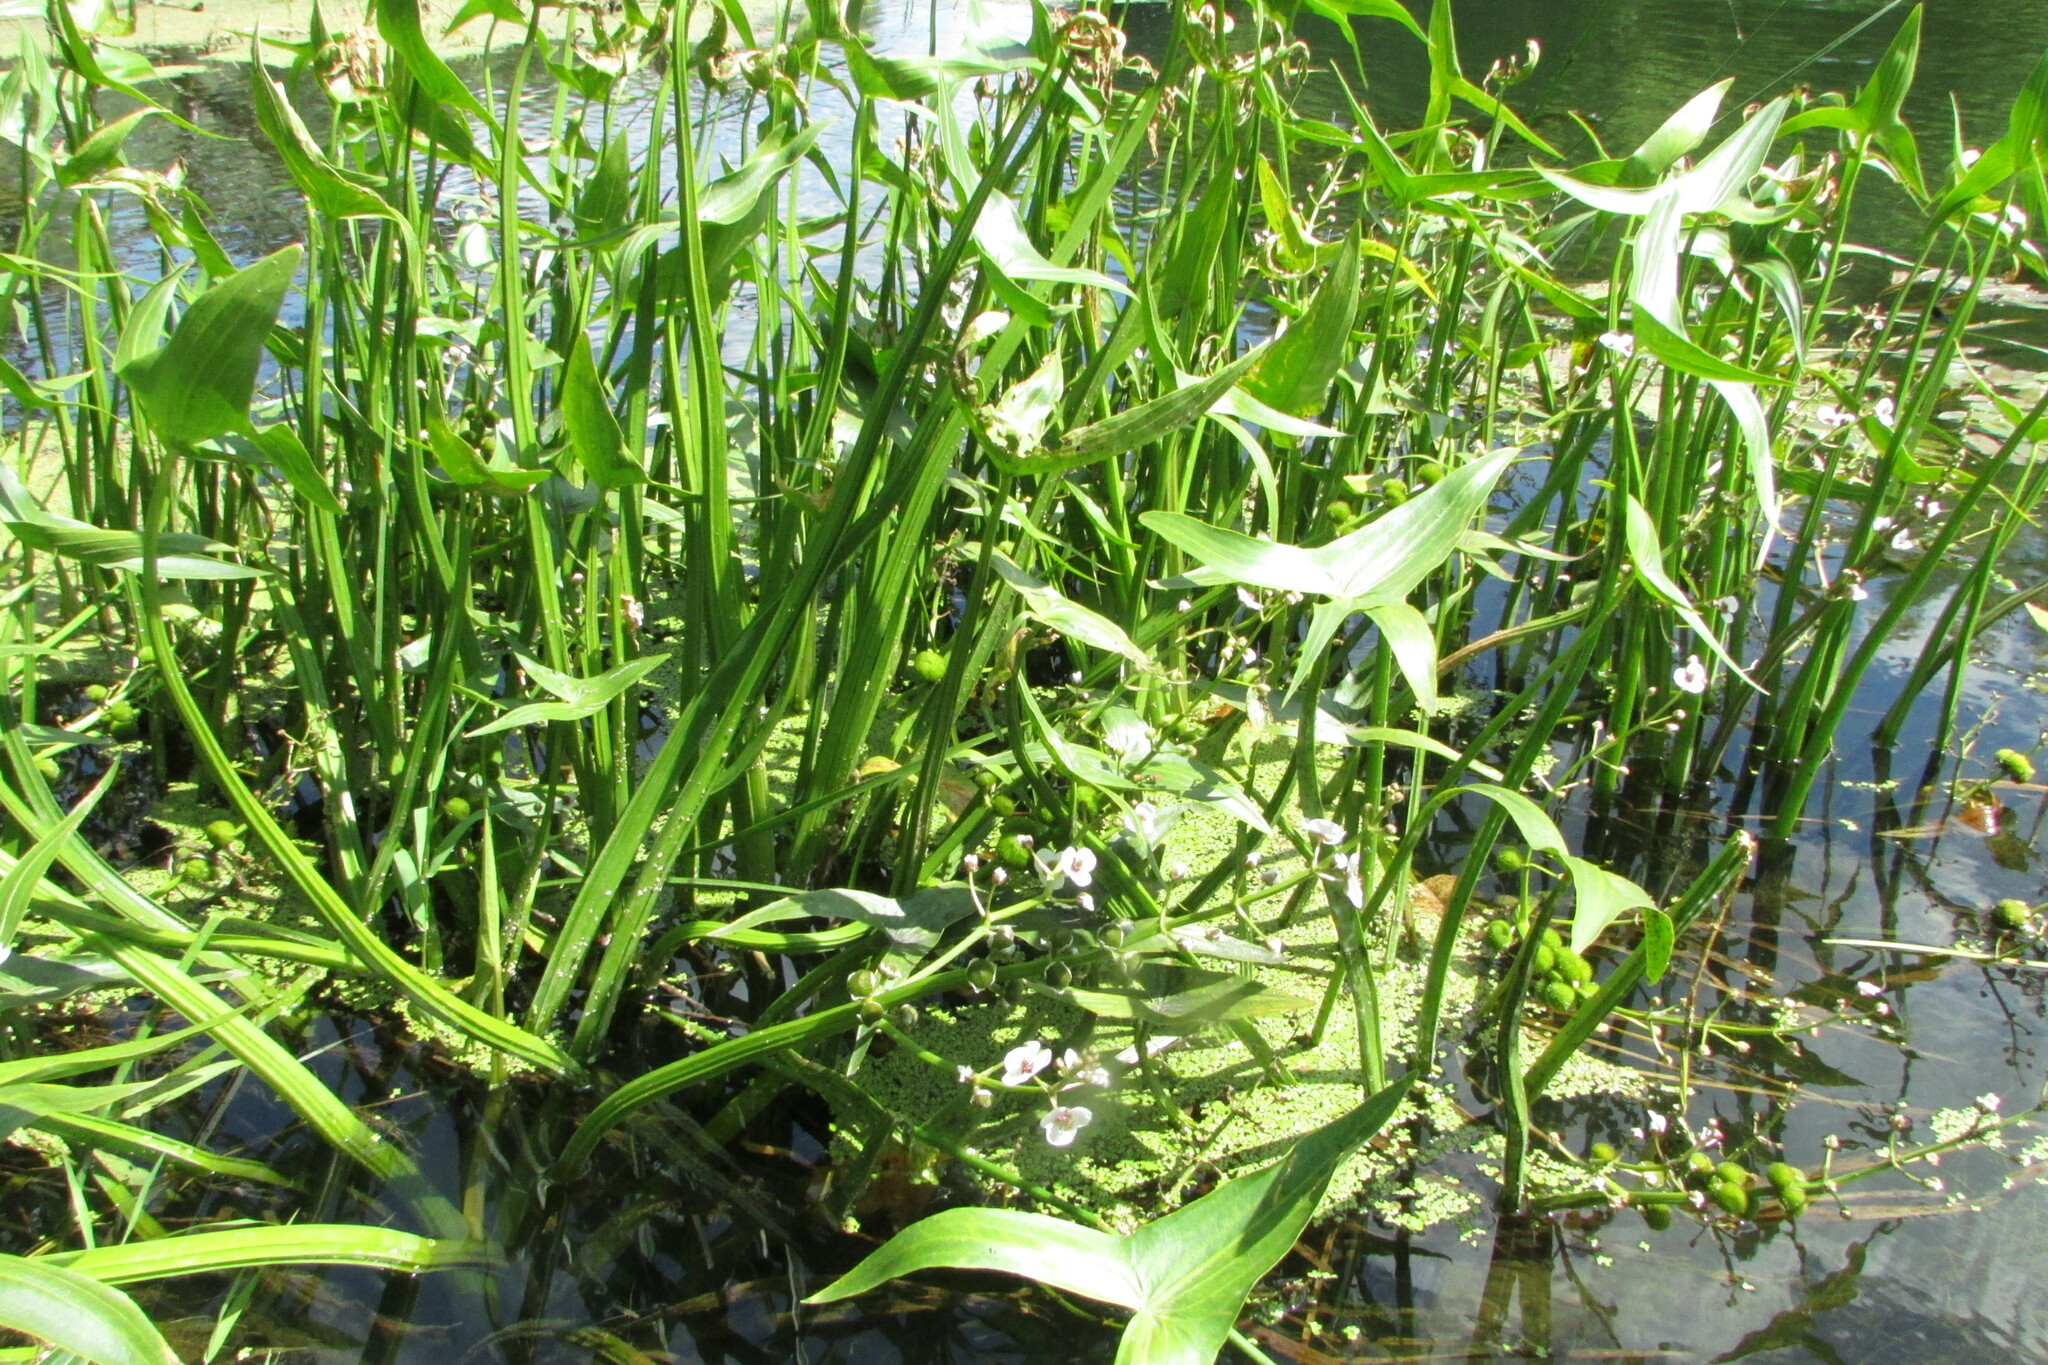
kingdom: Plantae
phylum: Tracheophyta
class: Liliopsida
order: Alismatales
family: Alismataceae
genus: Sagittaria
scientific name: Sagittaria sagittifolia
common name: Arrowhead
